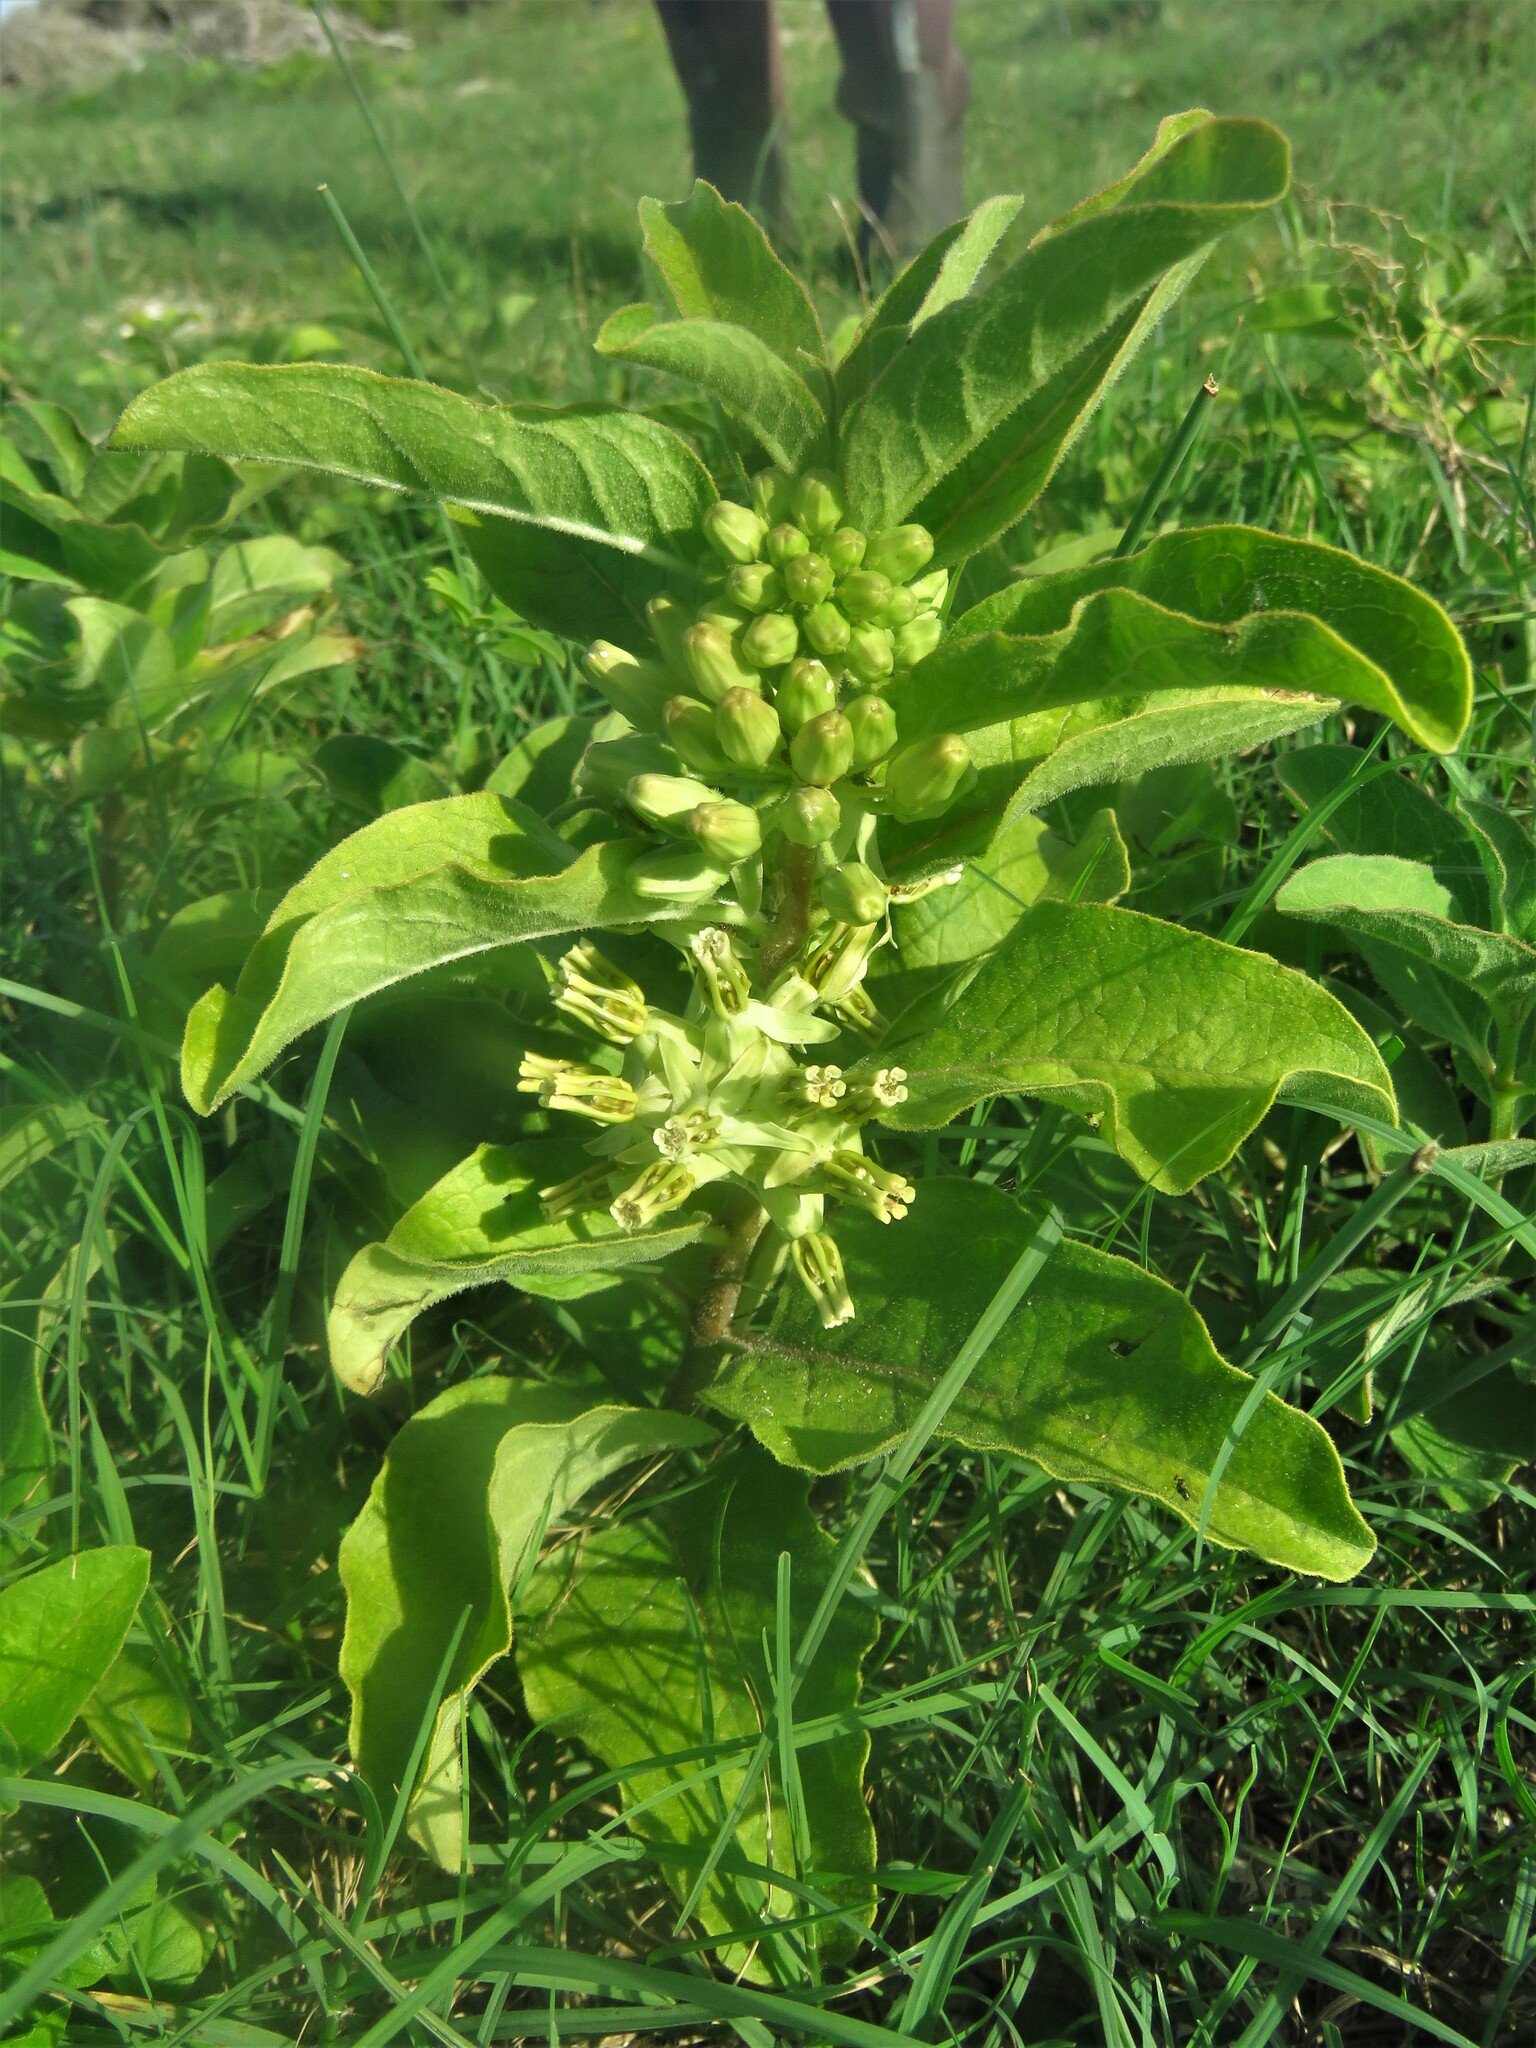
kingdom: Plantae
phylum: Tracheophyta
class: Magnoliopsida
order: Gentianales
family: Apocynaceae
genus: Asclepias
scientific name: Asclepias oenotheroides
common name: Zizotes milkweed
